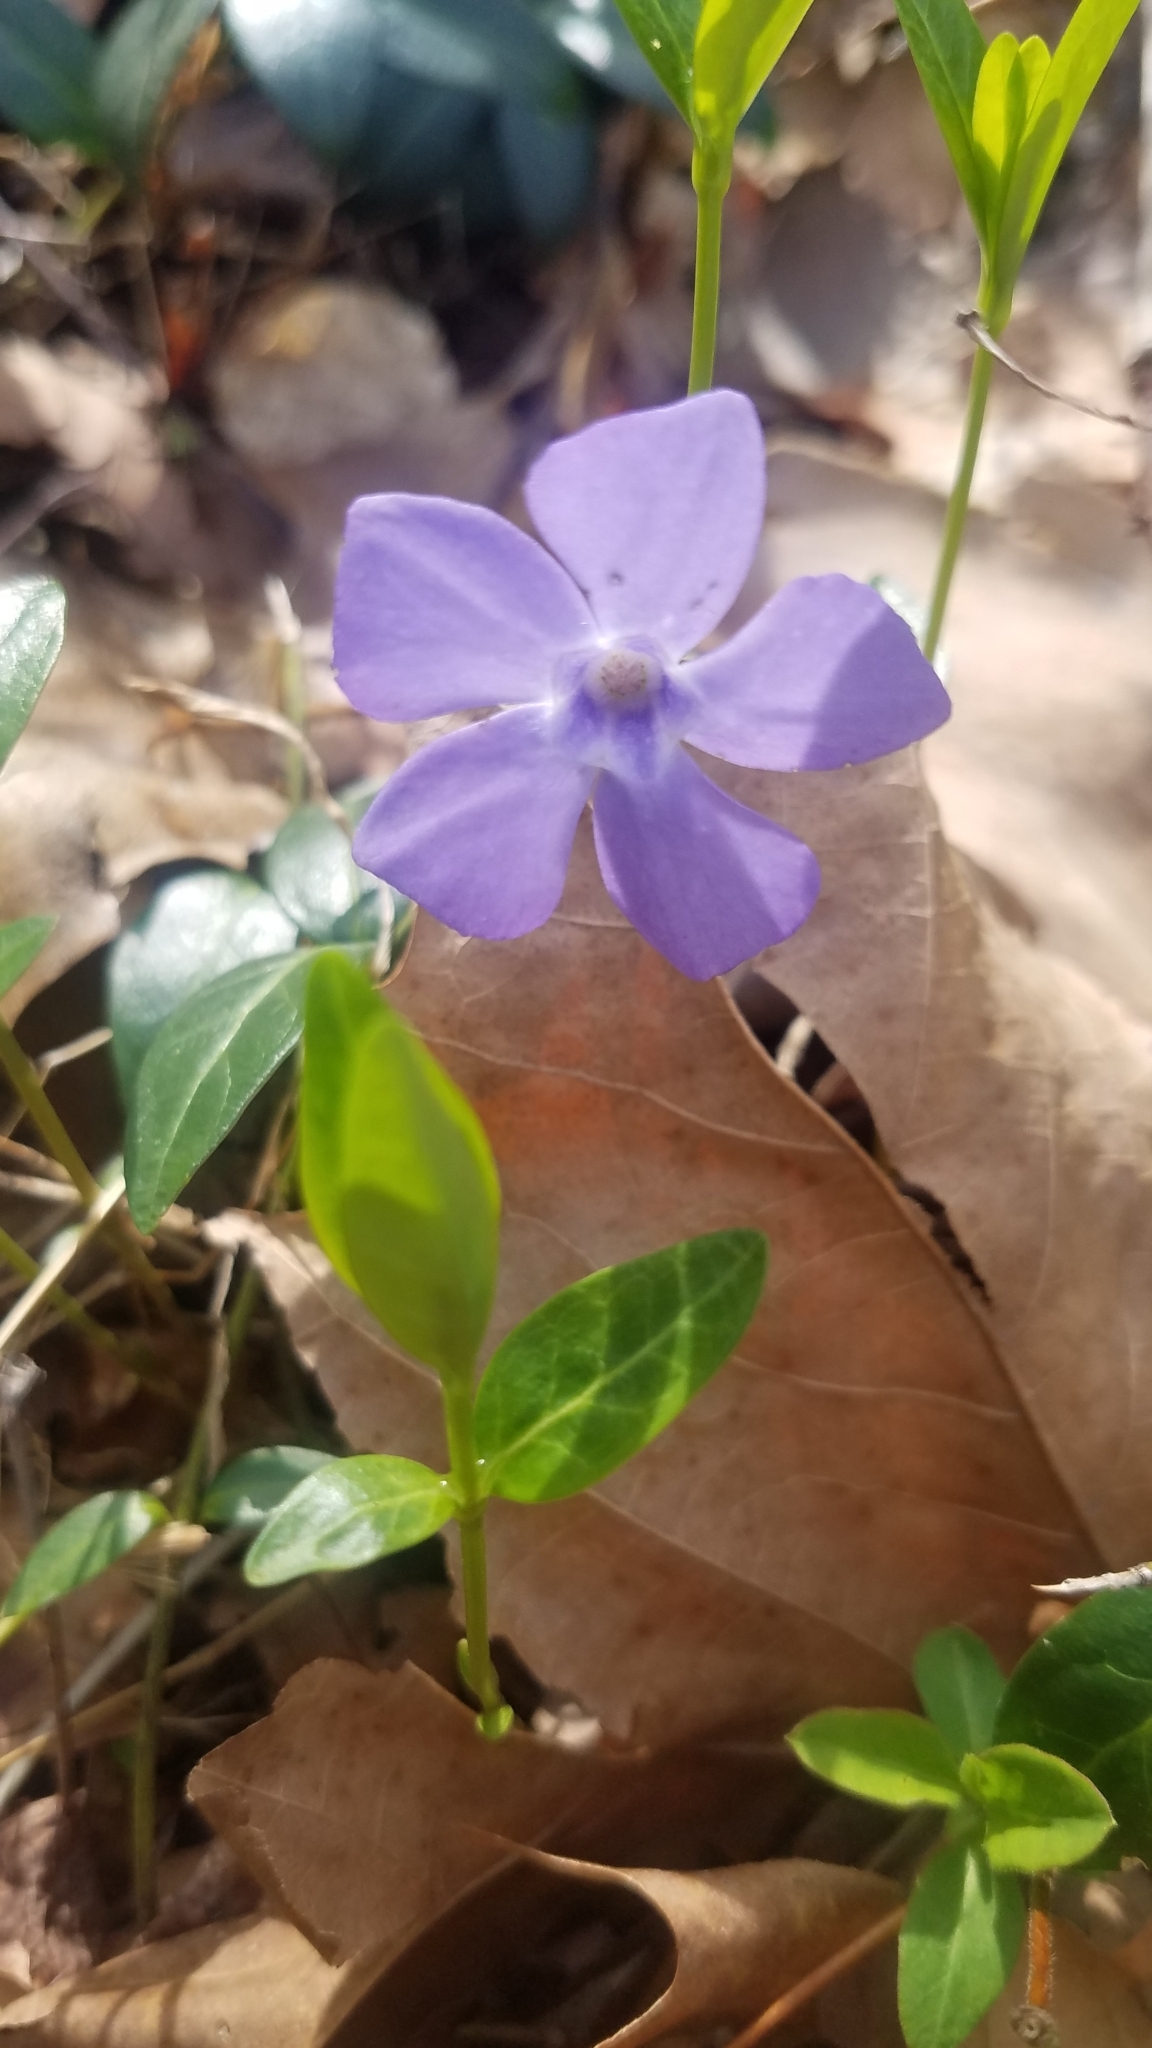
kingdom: Plantae
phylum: Tracheophyta
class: Magnoliopsida
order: Gentianales
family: Apocynaceae
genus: Vinca
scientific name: Vinca minor
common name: Lesser periwinkle
